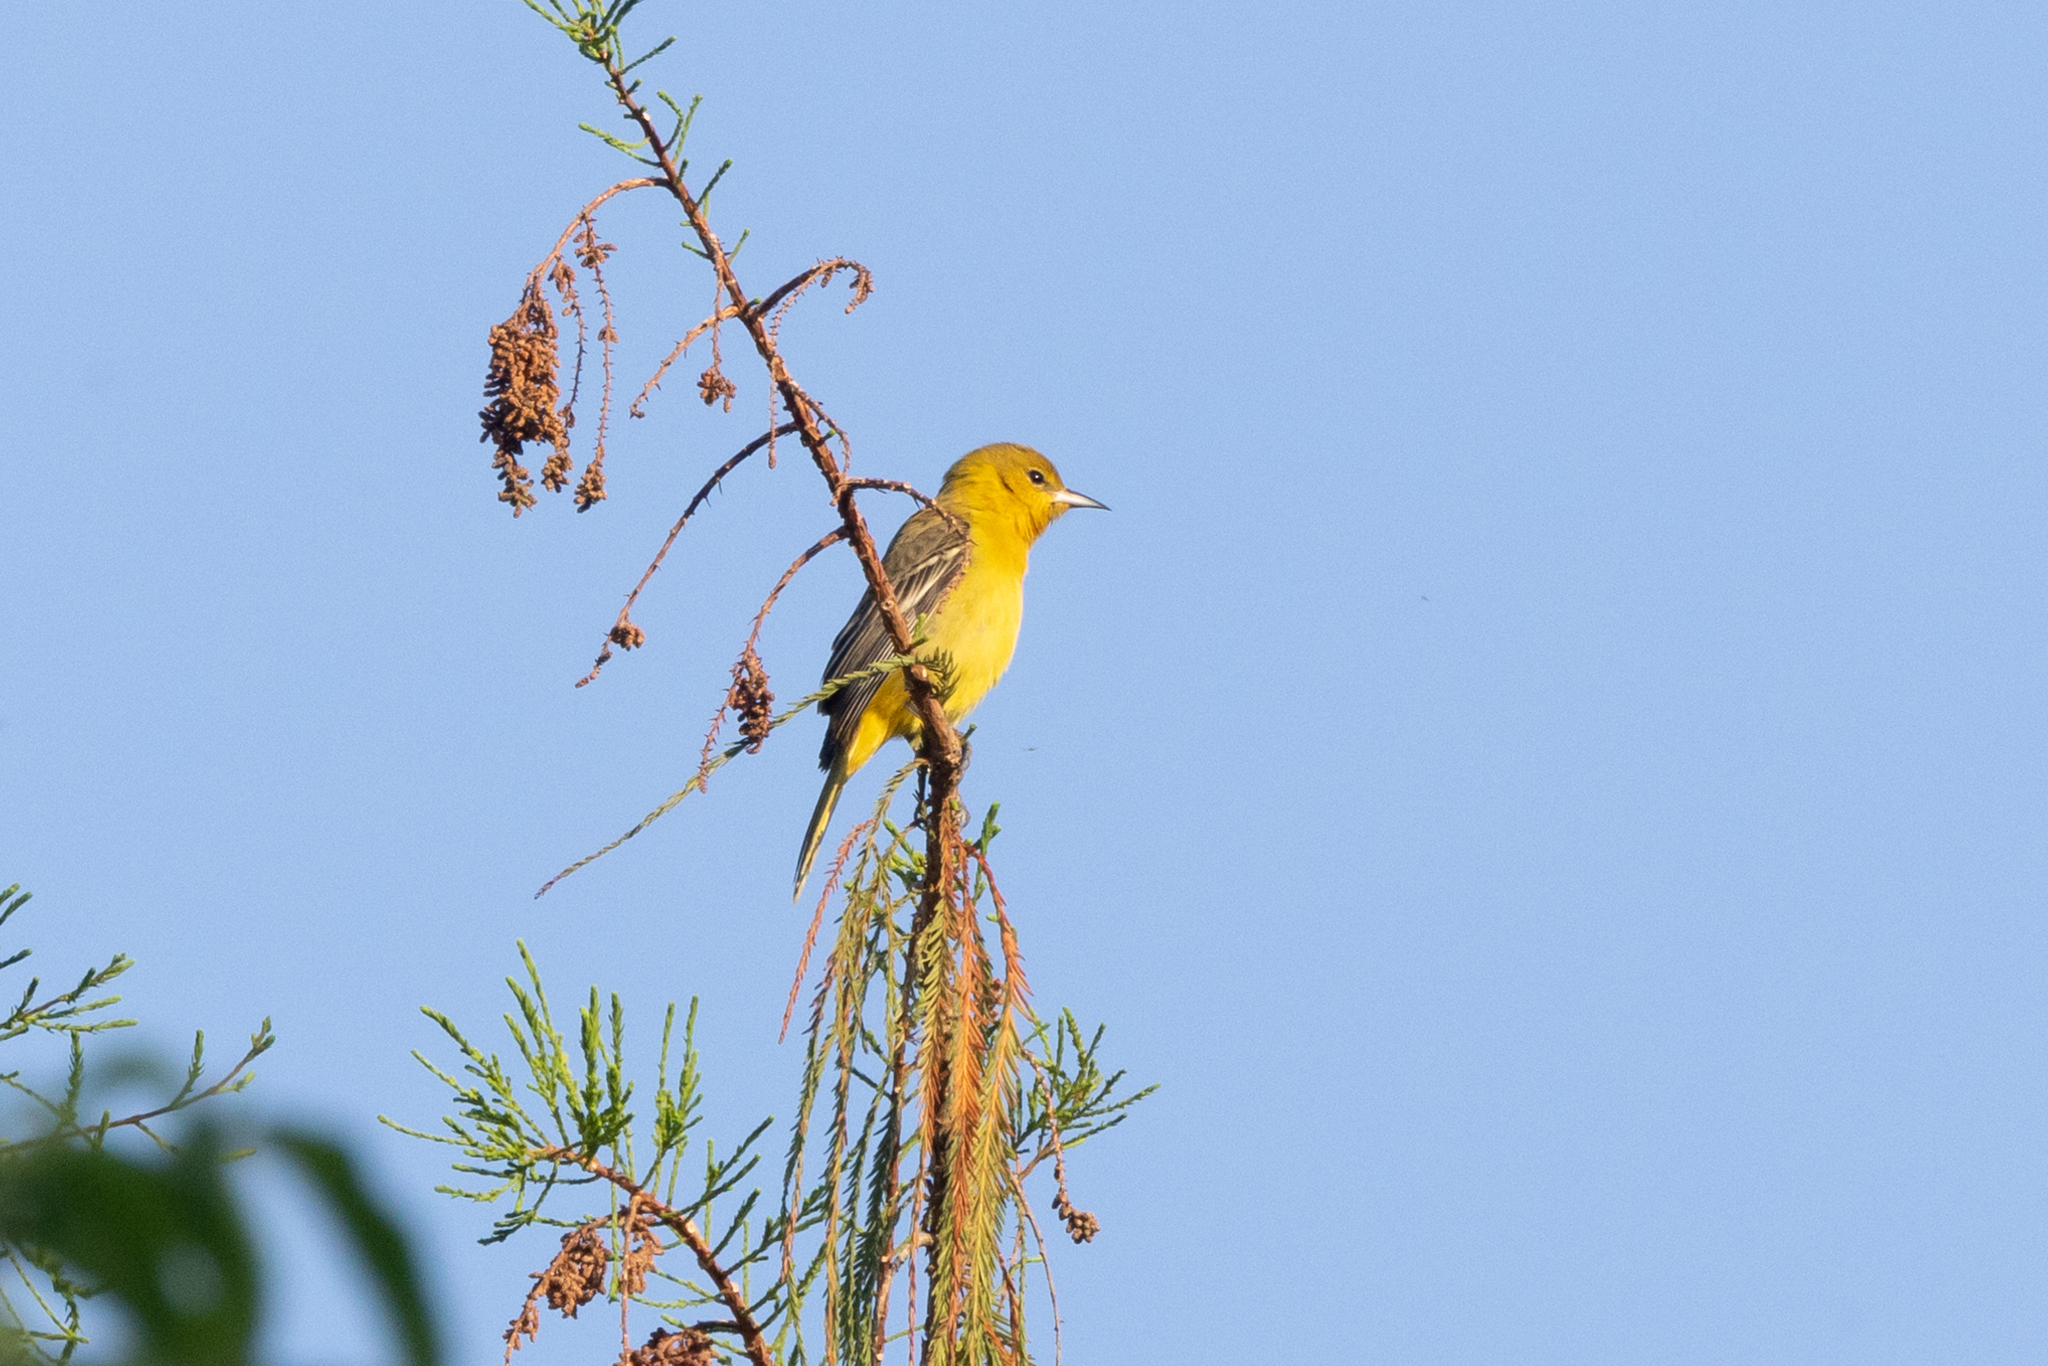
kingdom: Animalia
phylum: Chordata
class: Aves
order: Passeriformes
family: Icteridae
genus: Icterus
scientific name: Icterus spurius
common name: Orchard oriole
